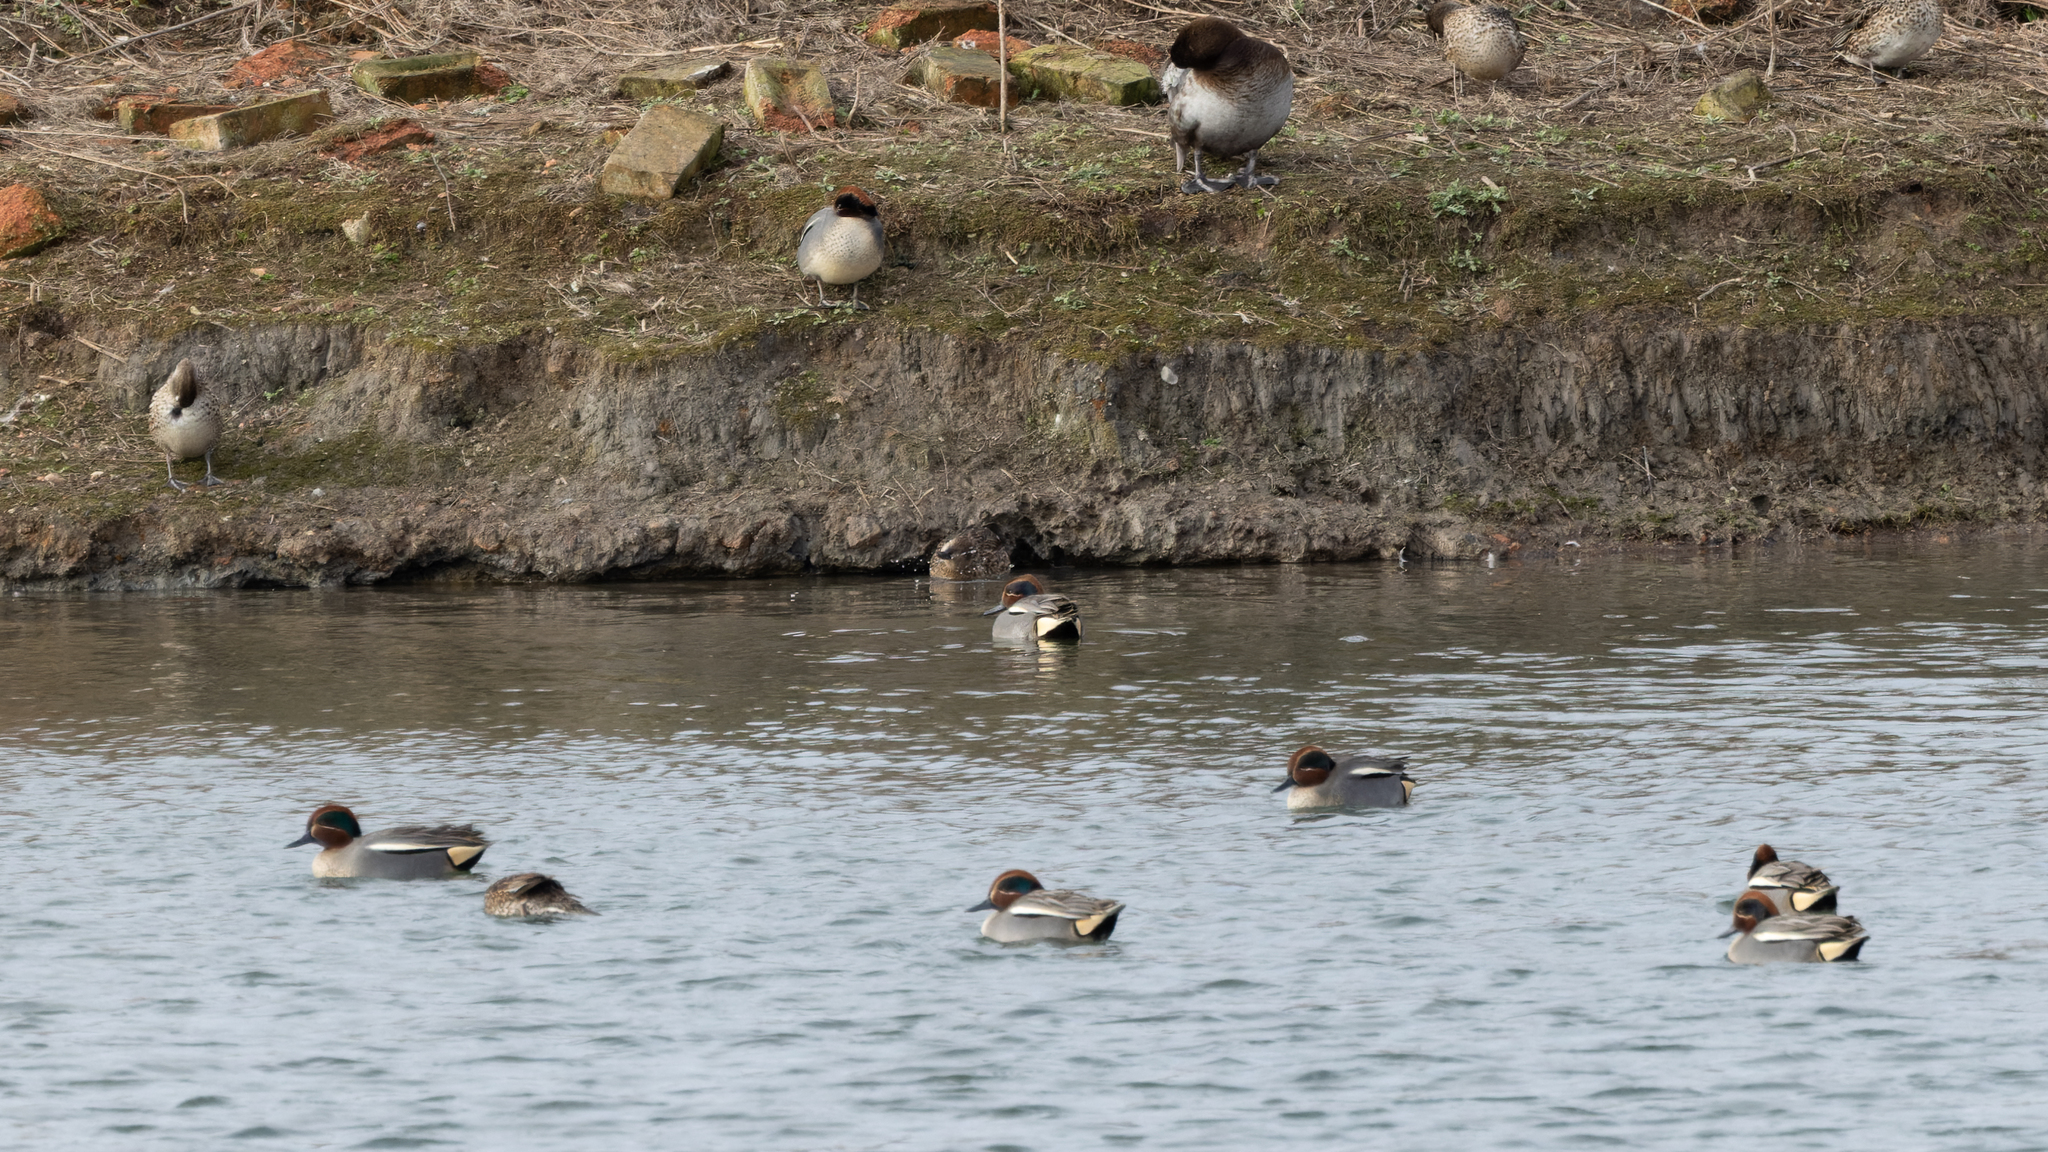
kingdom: Animalia
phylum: Chordata
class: Aves
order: Anseriformes
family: Anatidae
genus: Anas
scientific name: Anas crecca
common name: Eurasian teal
